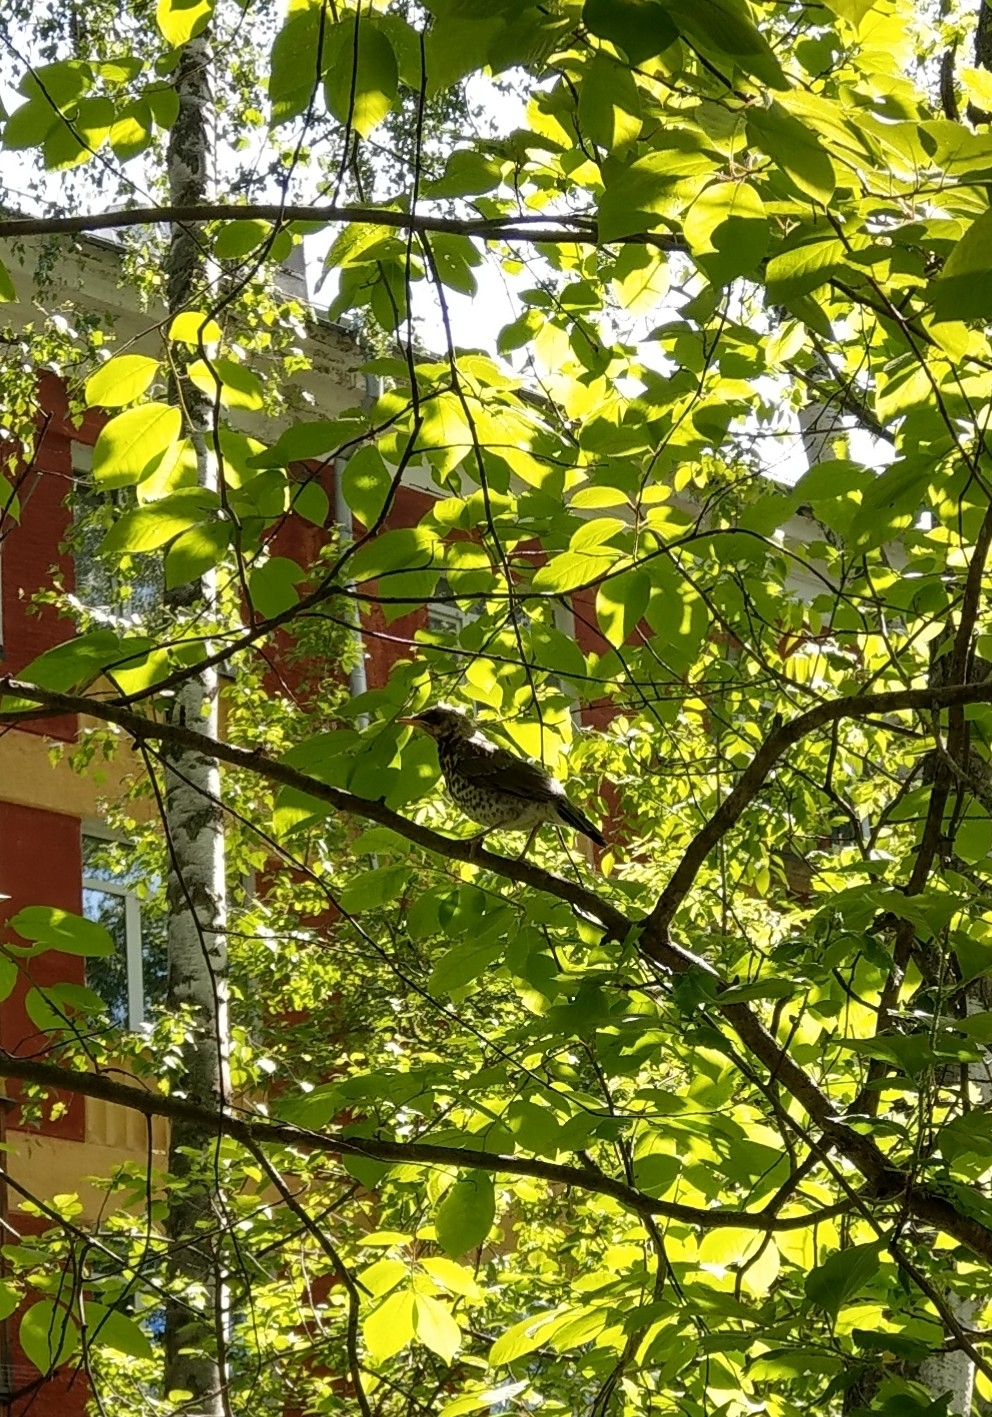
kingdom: Animalia
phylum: Chordata
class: Aves
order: Passeriformes
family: Turdidae
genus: Turdus
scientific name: Turdus pilaris
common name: Fieldfare
